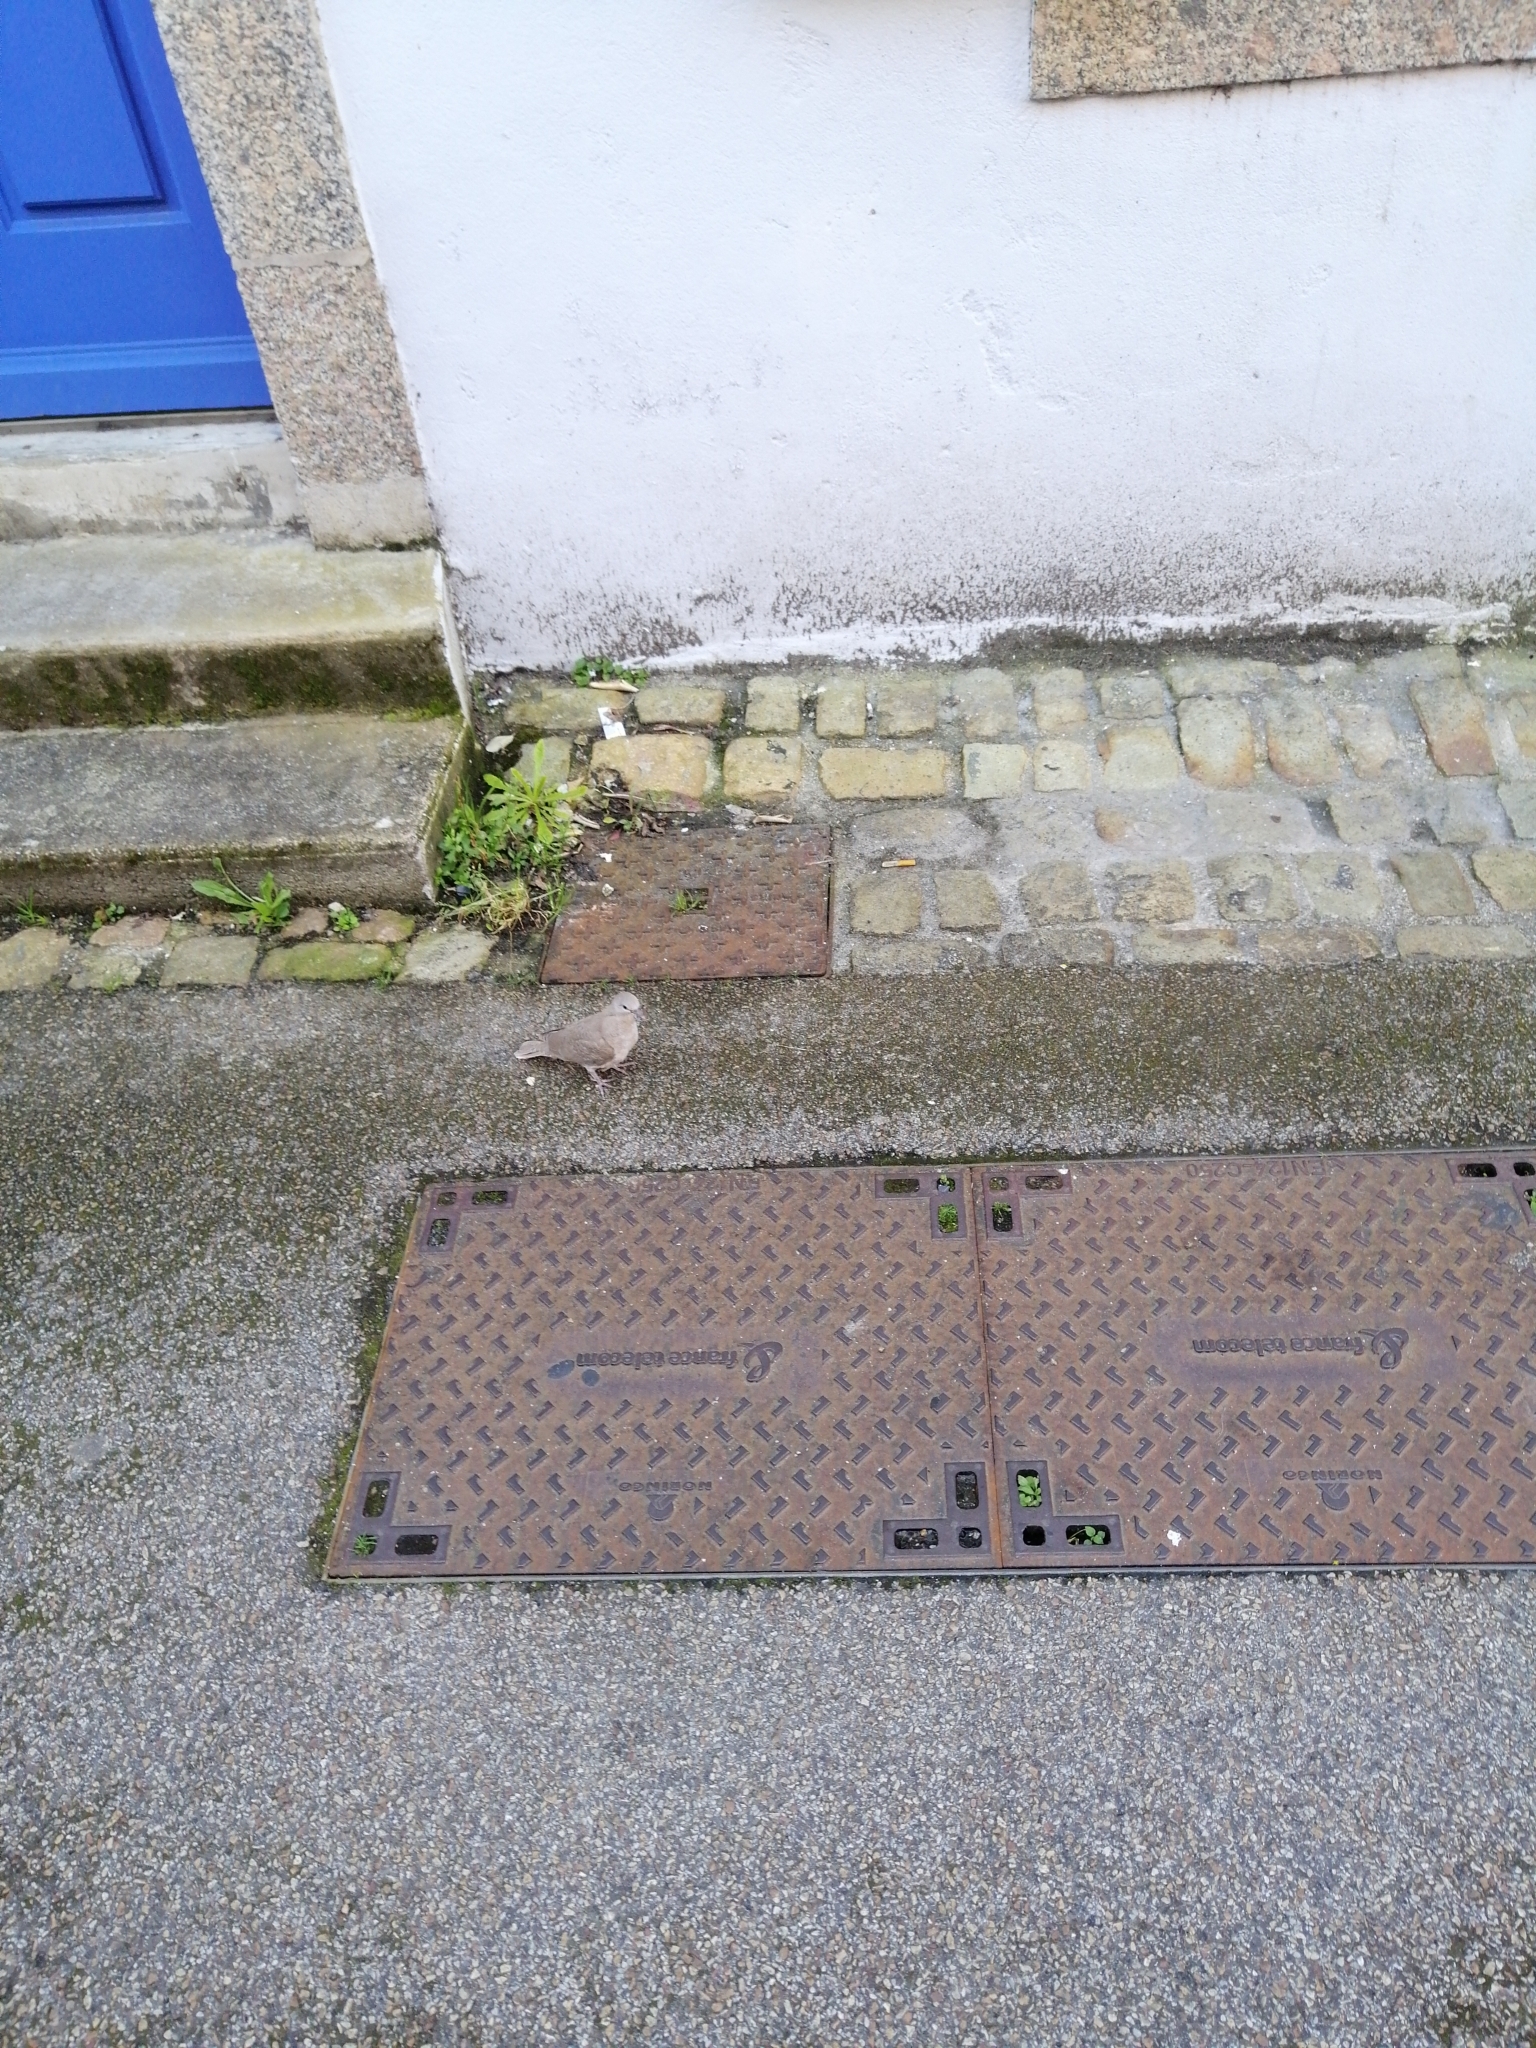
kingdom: Animalia
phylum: Chordata
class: Aves
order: Columbiformes
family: Columbidae
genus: Streptopelia
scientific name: Streptopelia decaocto
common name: Eurasian collared dove
